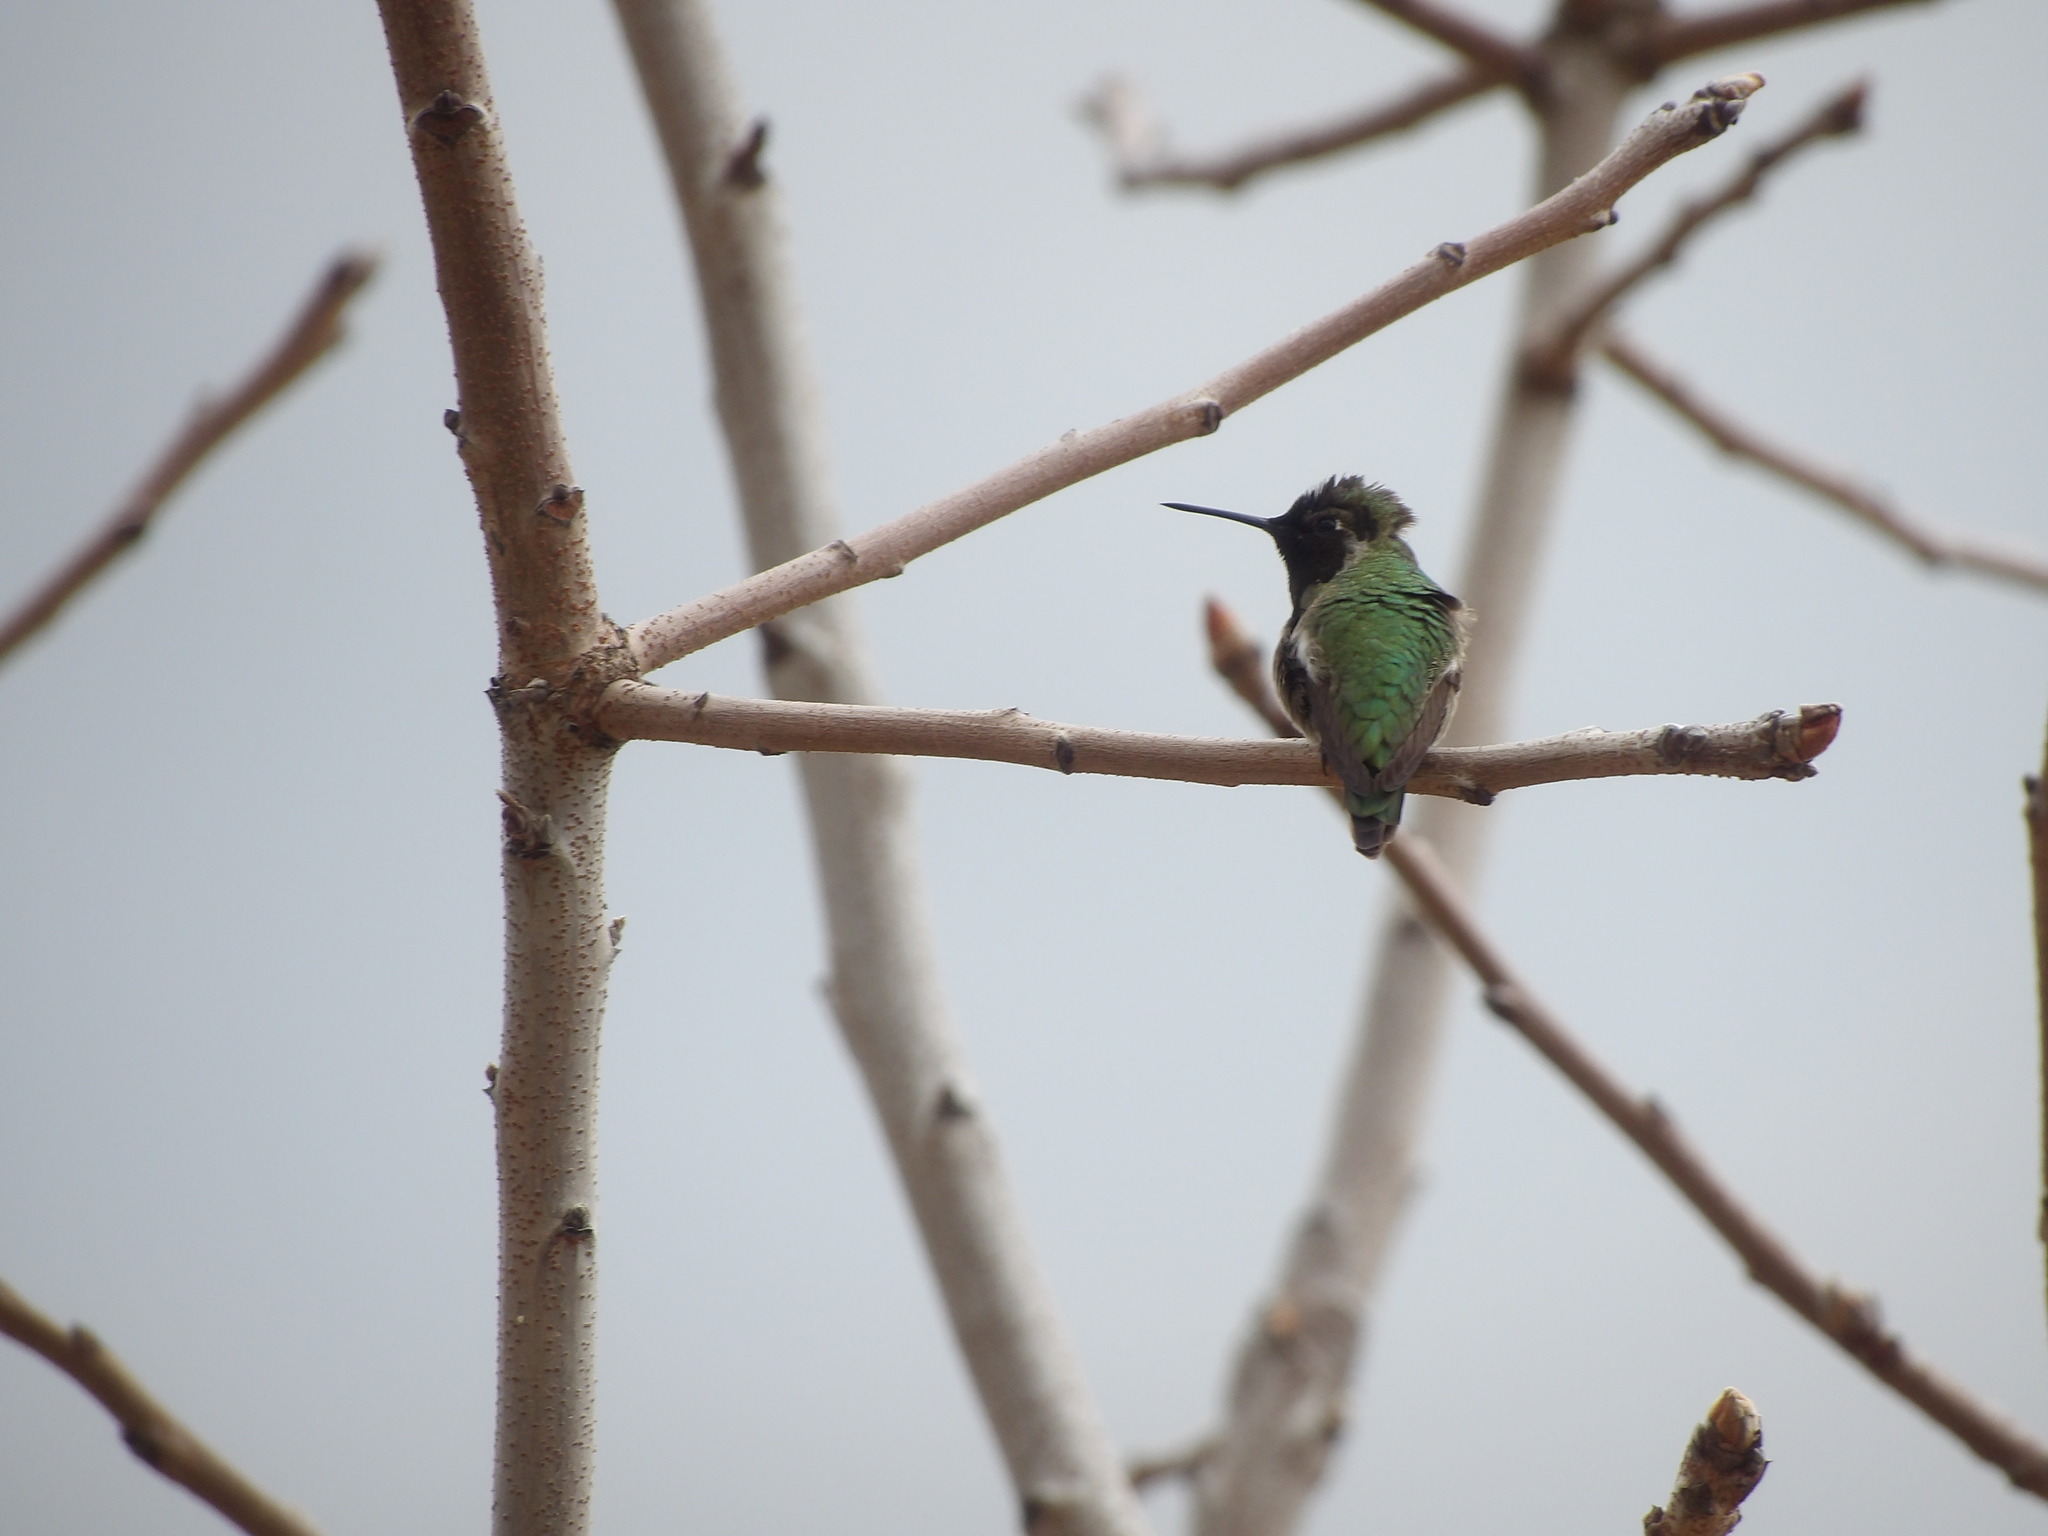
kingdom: Animalia
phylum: Chordata
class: Aves
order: Apodiformes
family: Trochilidae
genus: Calypte
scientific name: Calypte anna
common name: Anna's hummingbird
